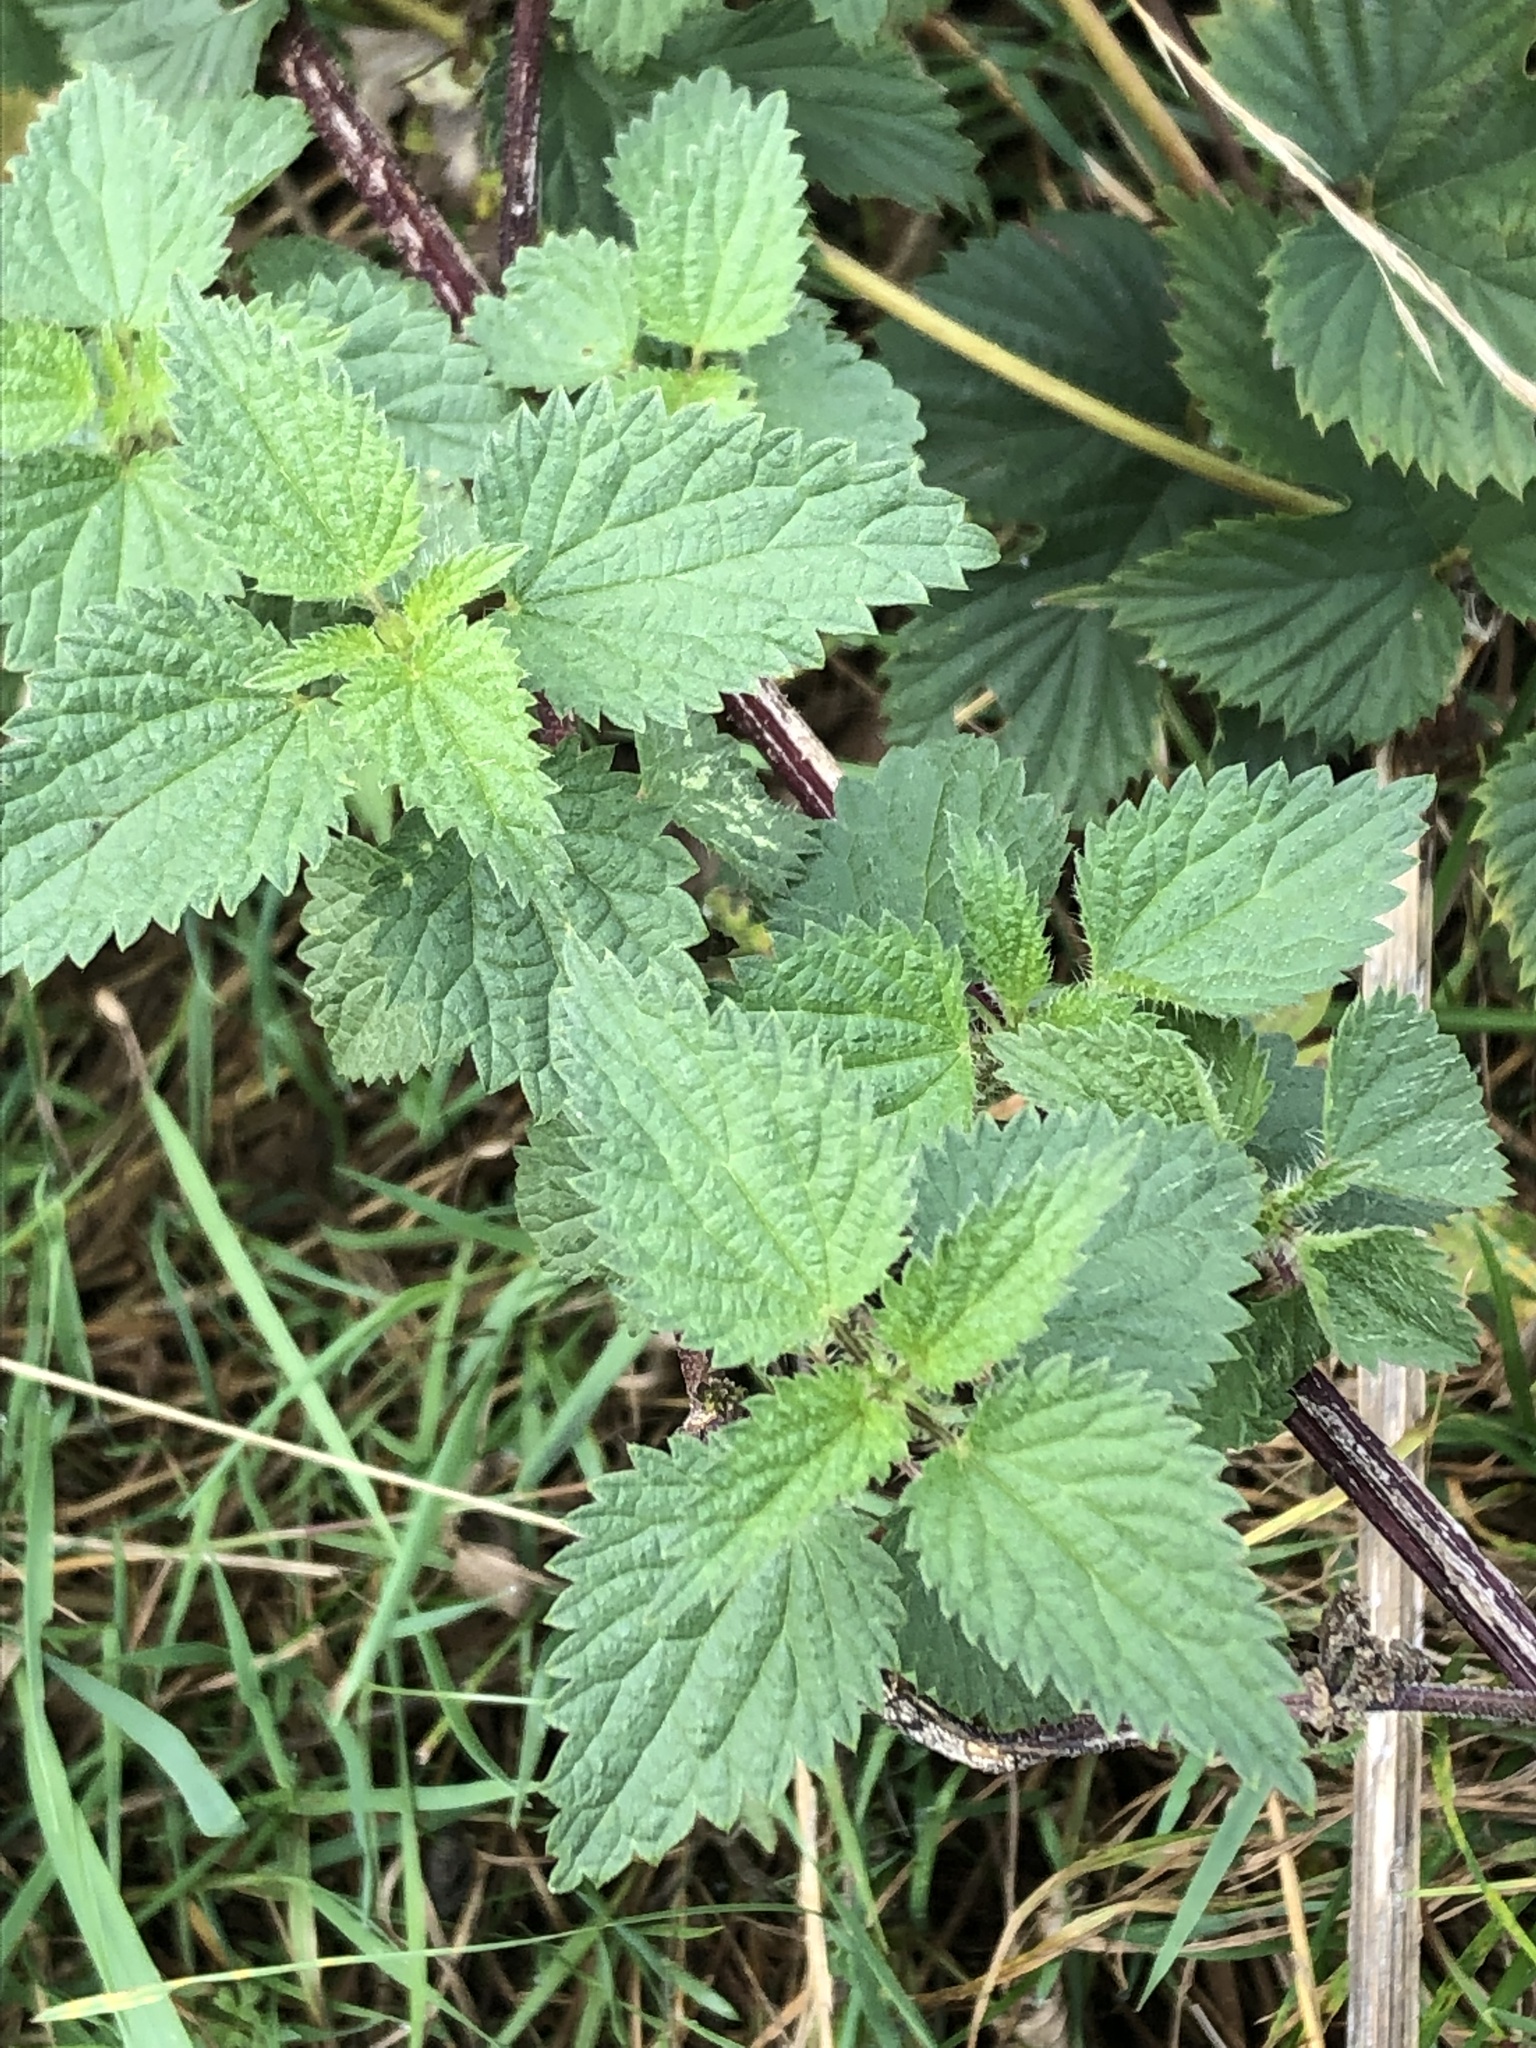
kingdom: Plantae
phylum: Tracheophyta
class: Magnoliopsida
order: Rosales
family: Urticaceae
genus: Urtica
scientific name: Urtica dioica
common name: Common nettle
